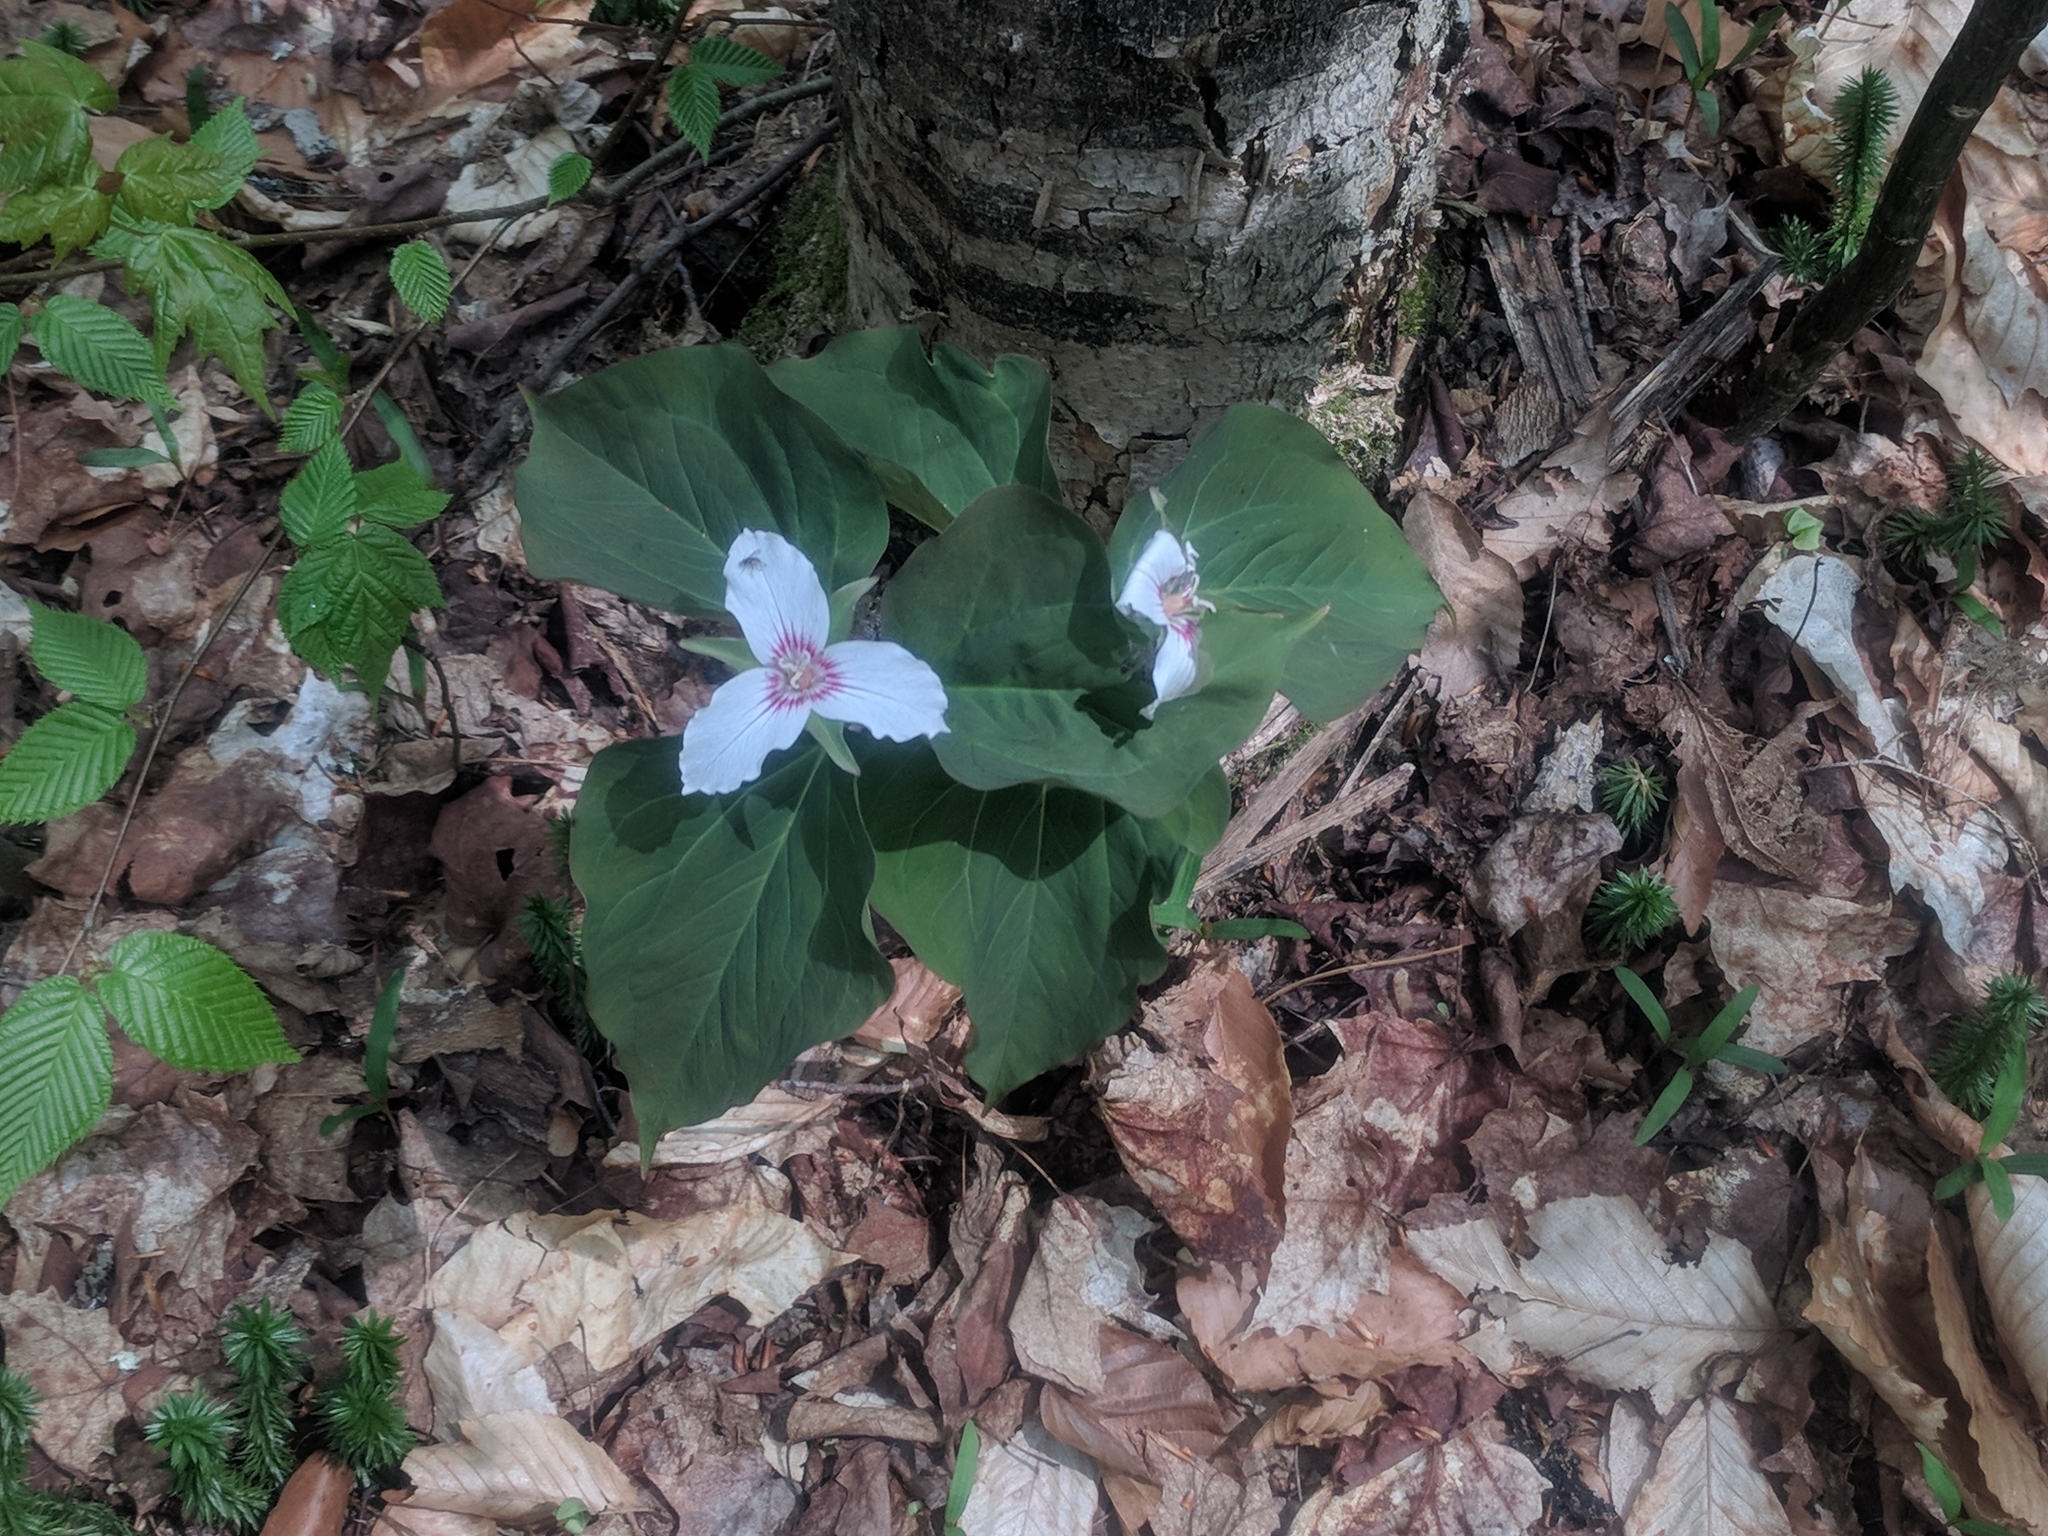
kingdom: Plantae
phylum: Tracheophyta
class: Liliopsida
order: Liliales
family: Melanthiaceae
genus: Trillium
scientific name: Trillium undulatum
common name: Paint trillium
